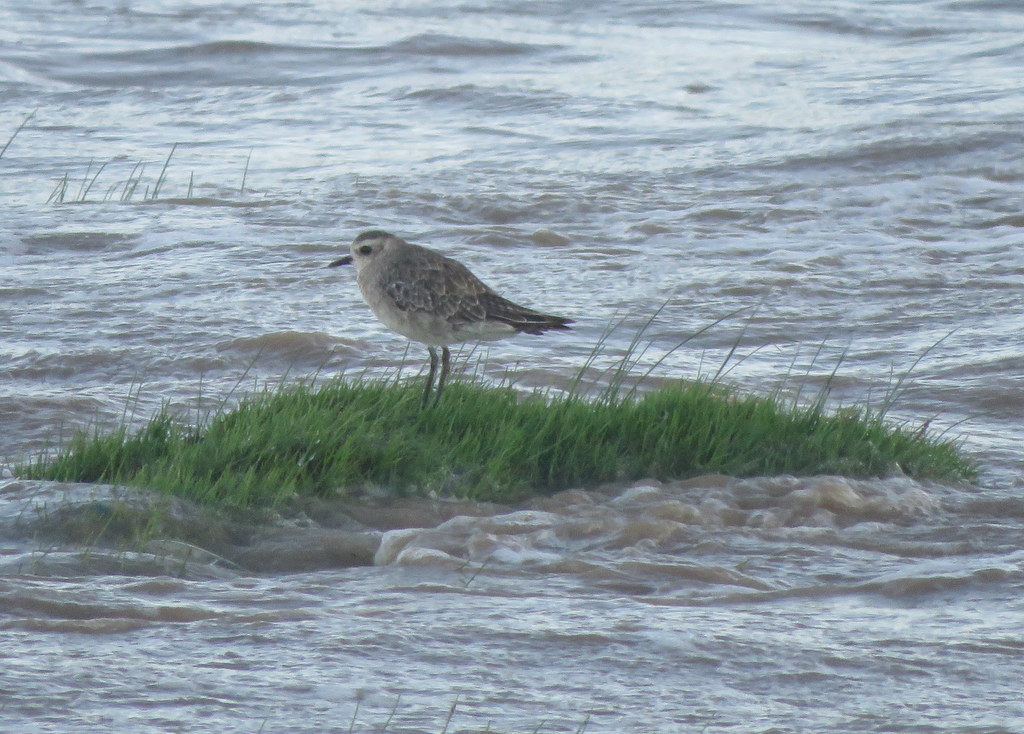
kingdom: Animalia
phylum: Chordata
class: Aves
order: Charadriiformes
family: Charadriidae
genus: Pluvialis
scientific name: Pluvialis dominica
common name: American golden plover
